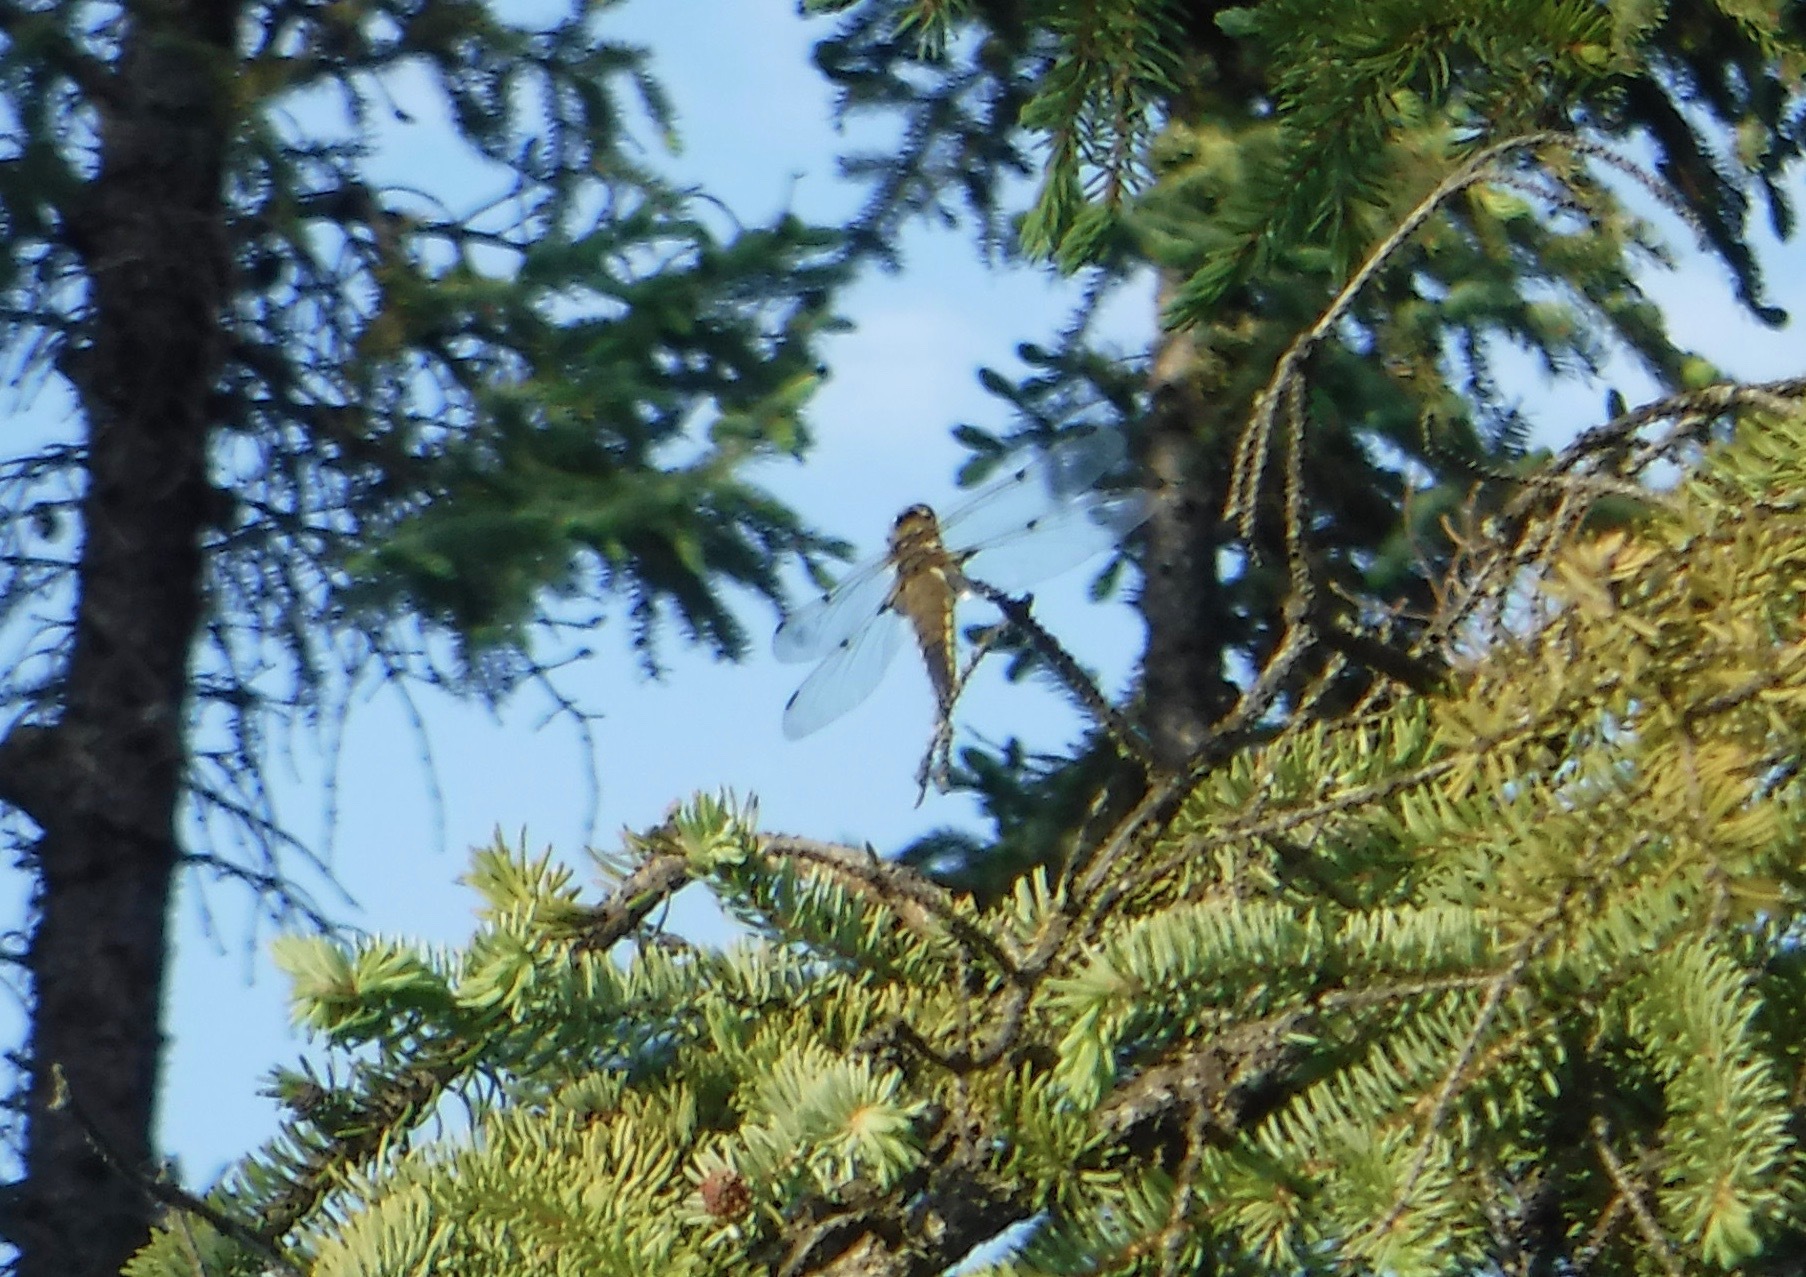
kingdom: Animalia
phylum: Arthropoda
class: Insecta
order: Odonata
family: Libellulidae
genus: Libellula
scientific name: Libellula quadrimaculata
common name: Four-spotted chaser
